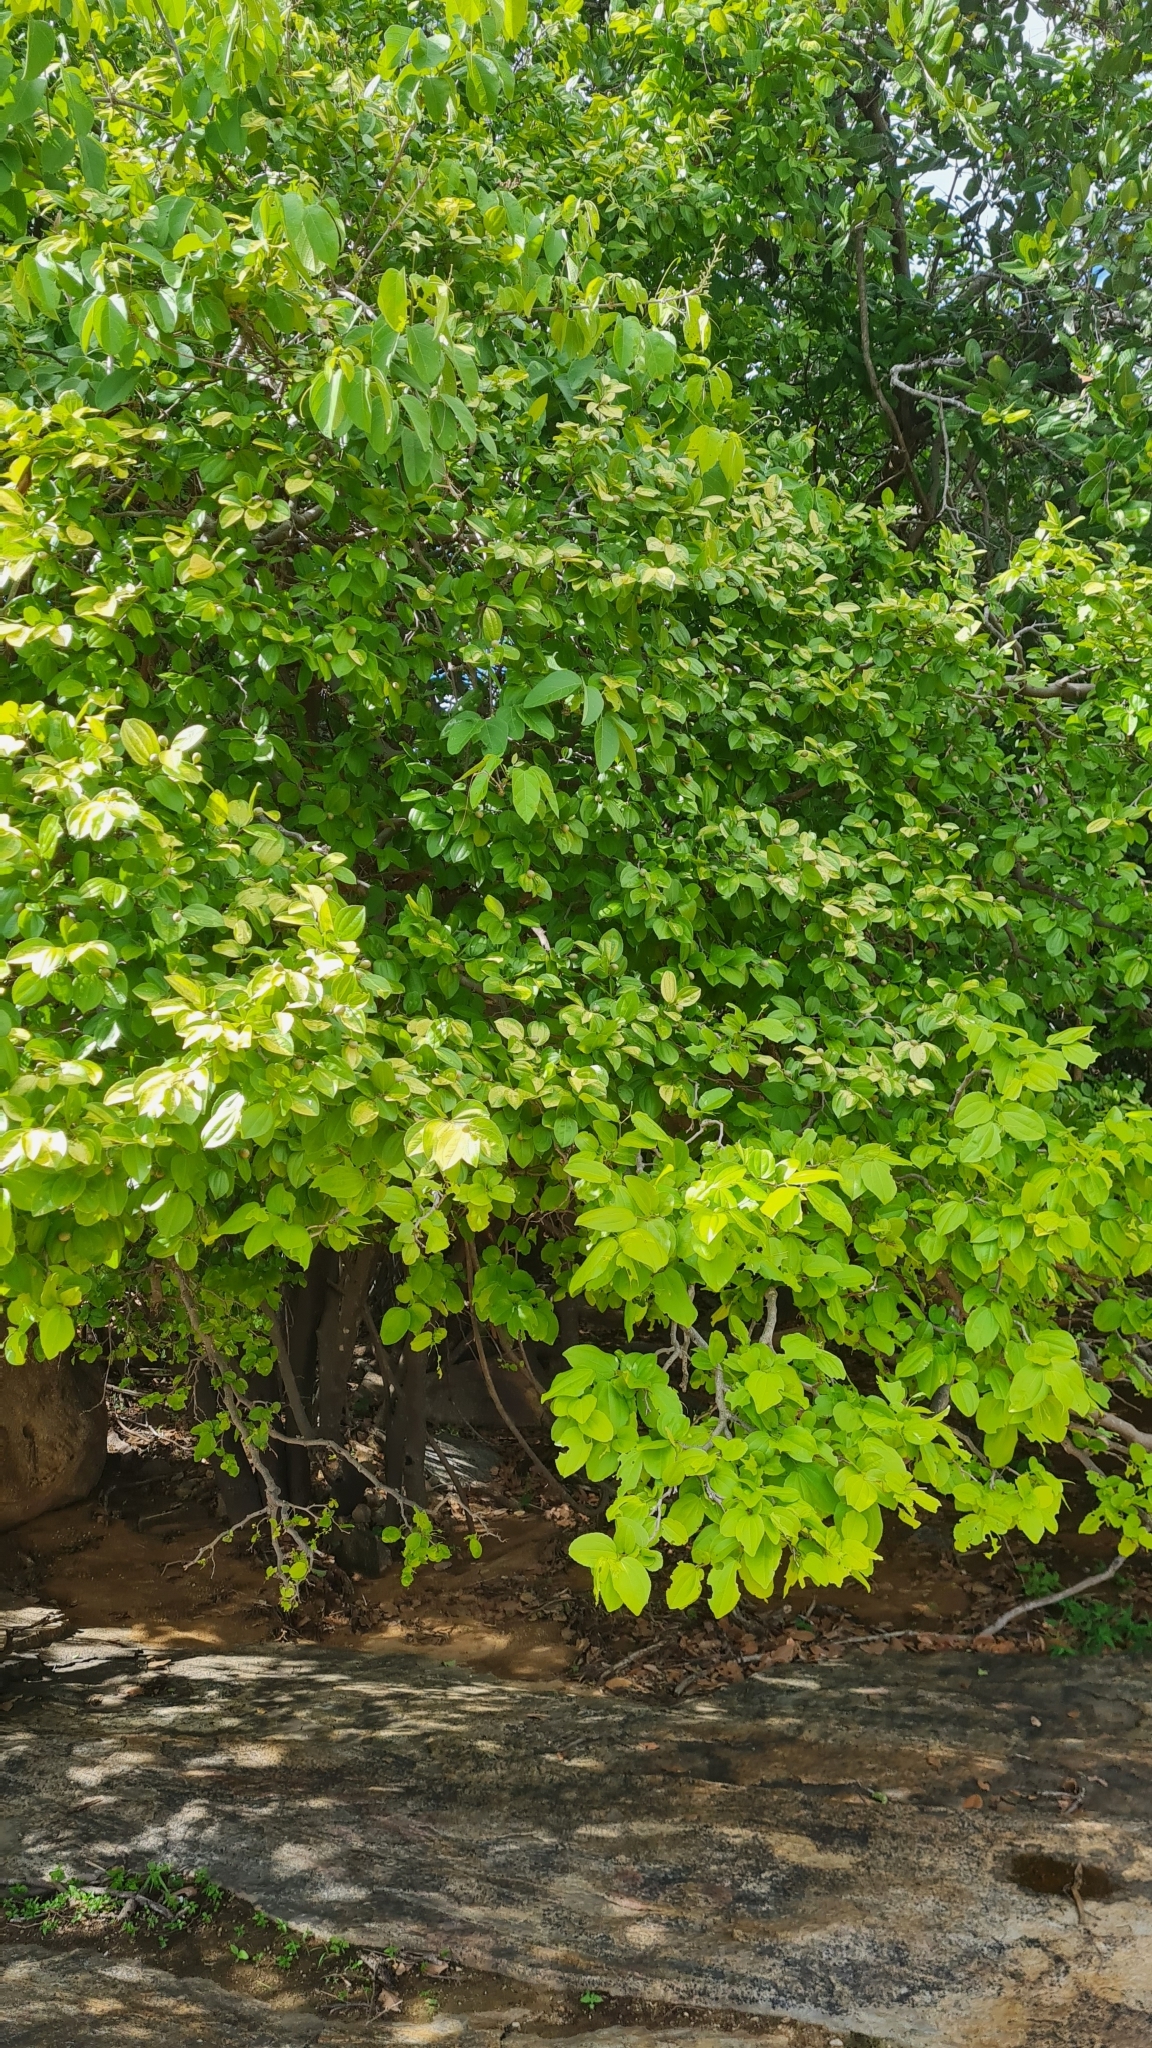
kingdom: Plantae
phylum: Tracheophyta
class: Magnoliopsida
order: Rosales
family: Rhamnaceae
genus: Sarcomphalus
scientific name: Sarcomphalus joazeiro
